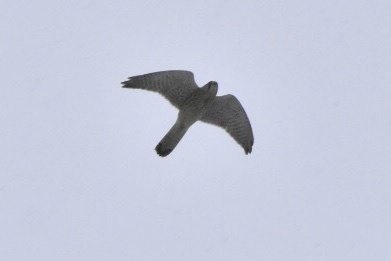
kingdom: Animalia
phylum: Chordata
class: Aves
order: Falconiformes
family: Falconidae
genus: Falco
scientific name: Falco tinnunculus
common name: Common kestrel
